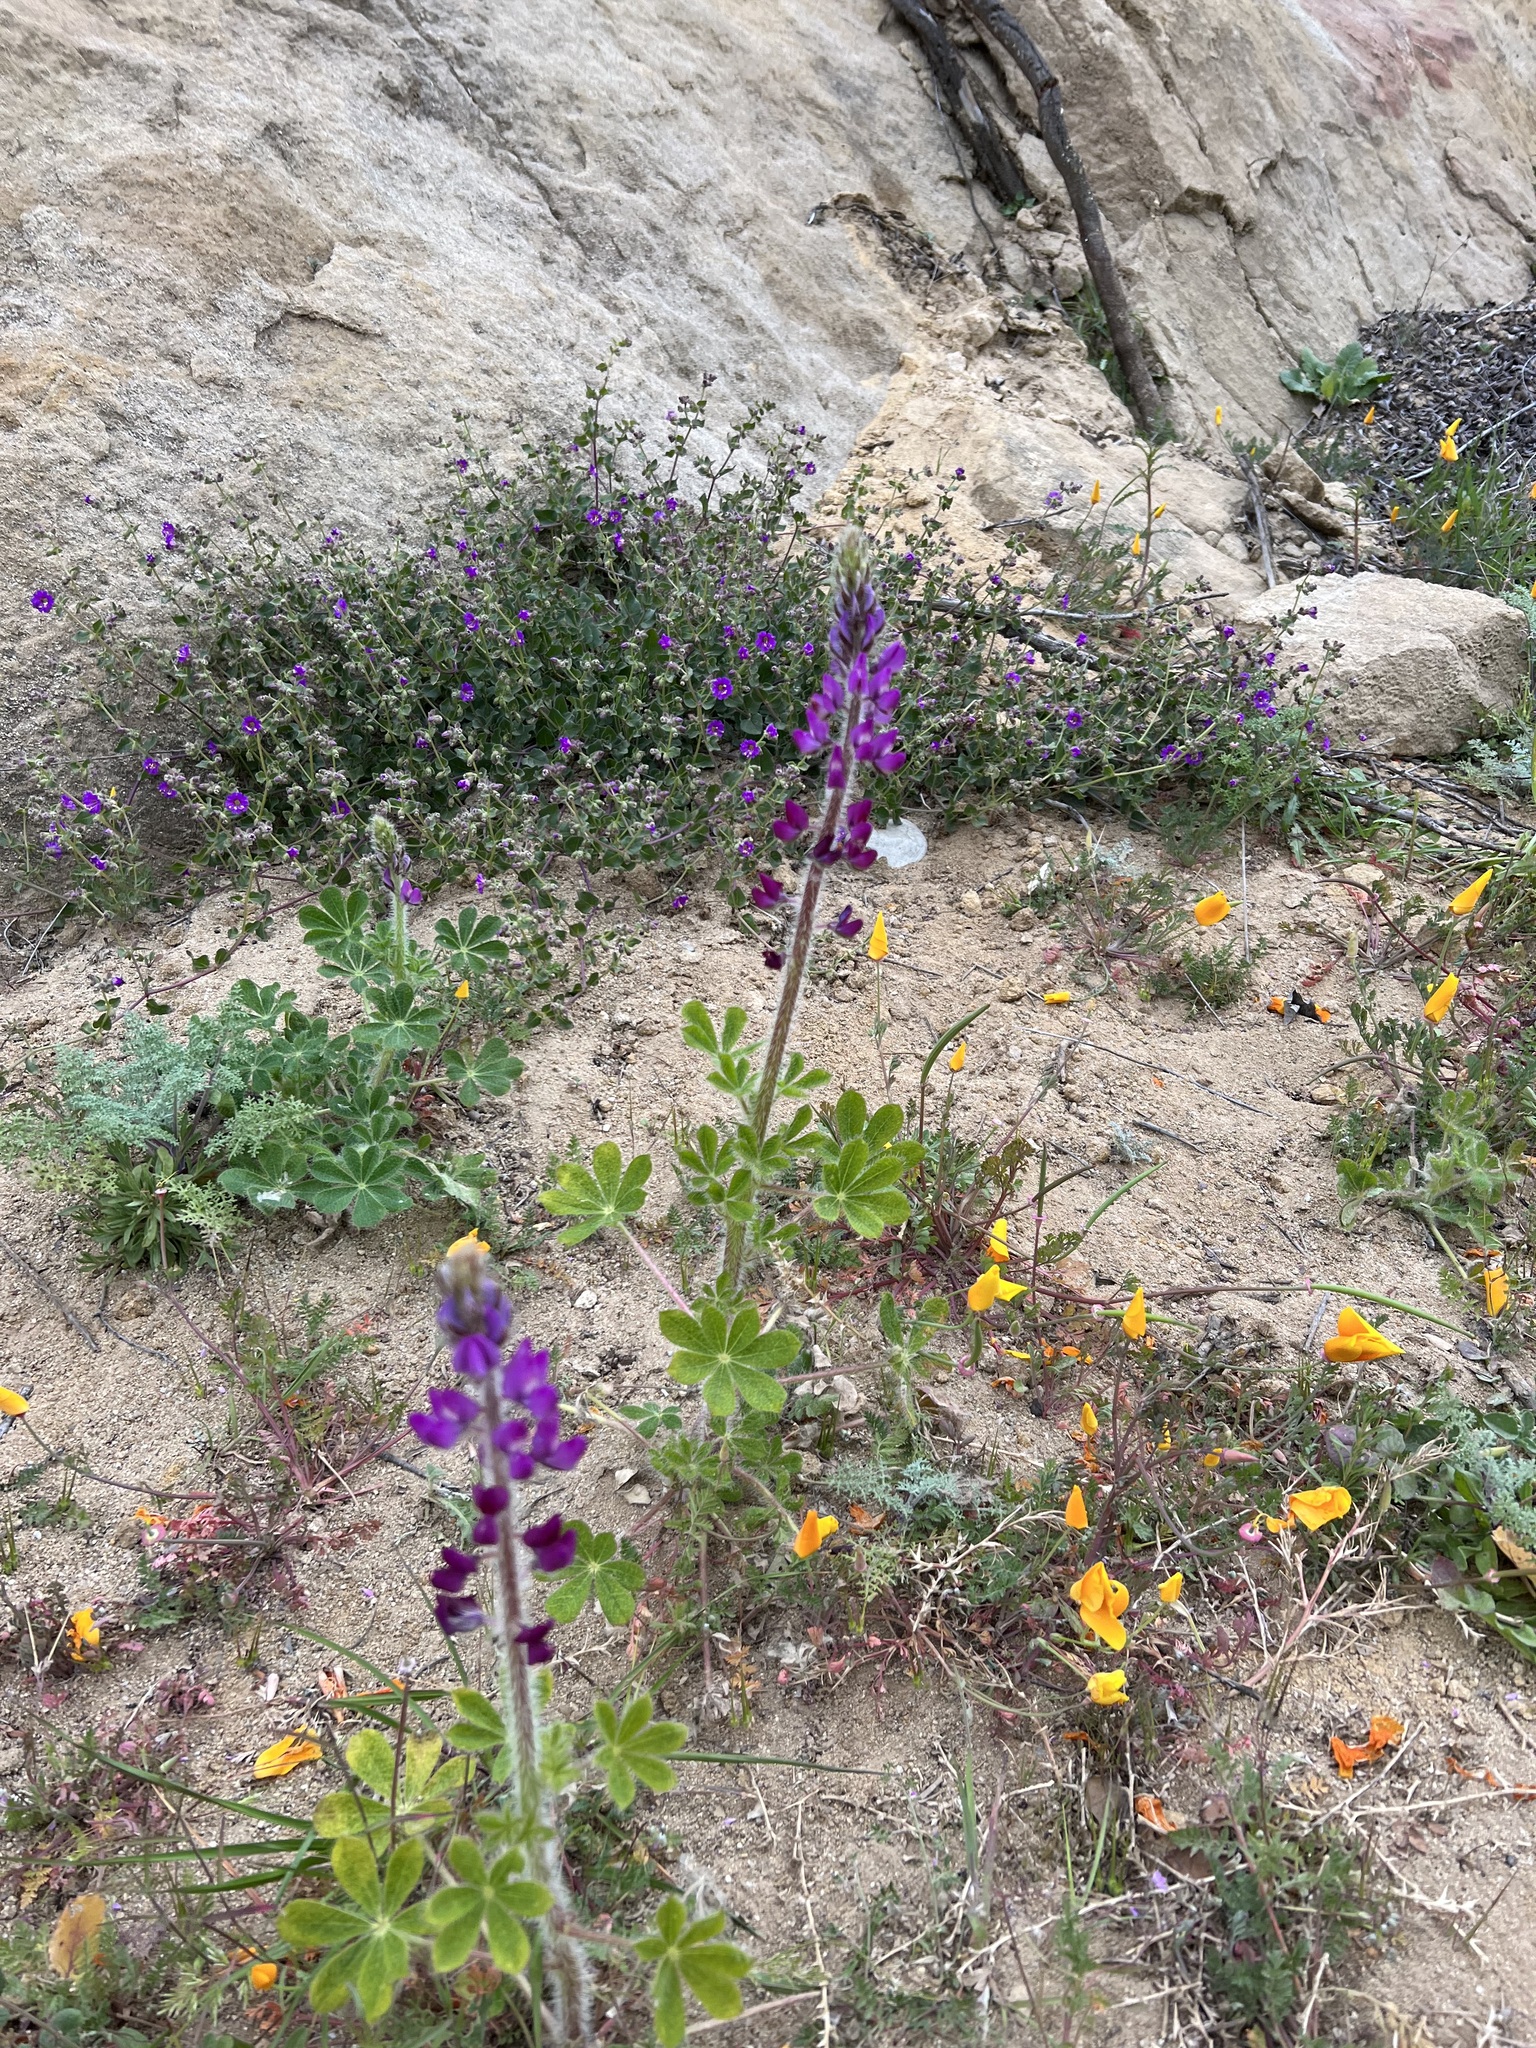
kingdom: Plantae
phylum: Tracheophyta
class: Magnoliopsida
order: Fabales
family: Fabaceae
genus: Lupinus
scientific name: Lupinus hirsutissimus
